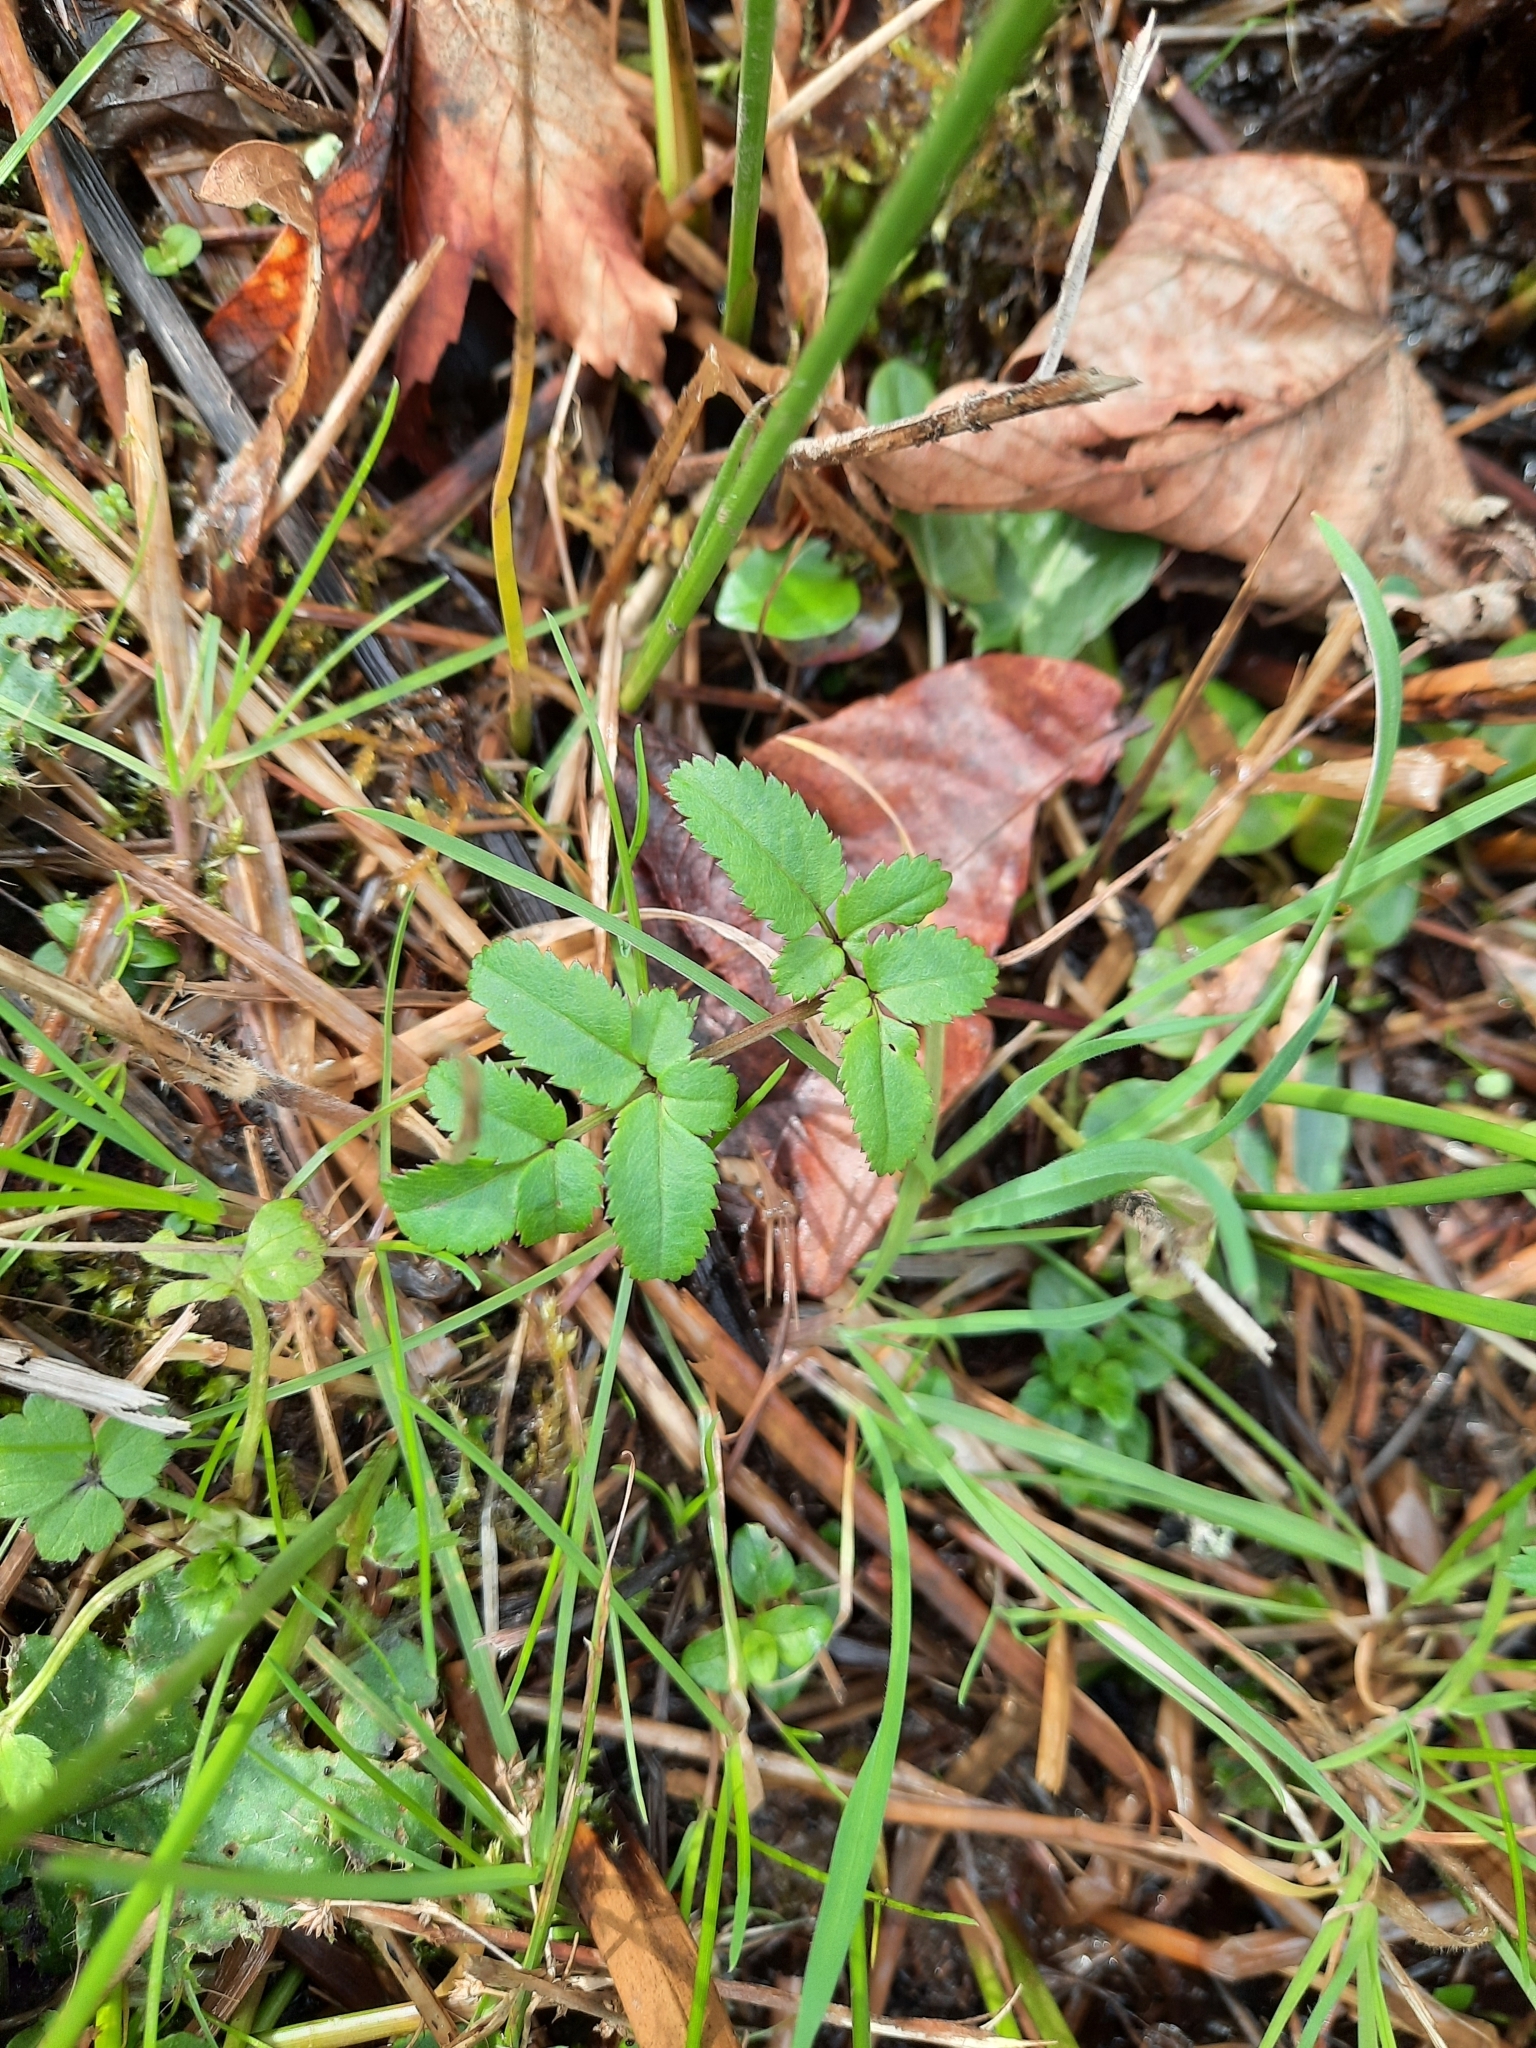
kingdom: Plantae
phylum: Tracheophyta
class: Magnoliopsida
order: Apiales
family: Apiaceae
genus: Angelica
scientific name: Angelica sylvestris
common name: Wild angelica
